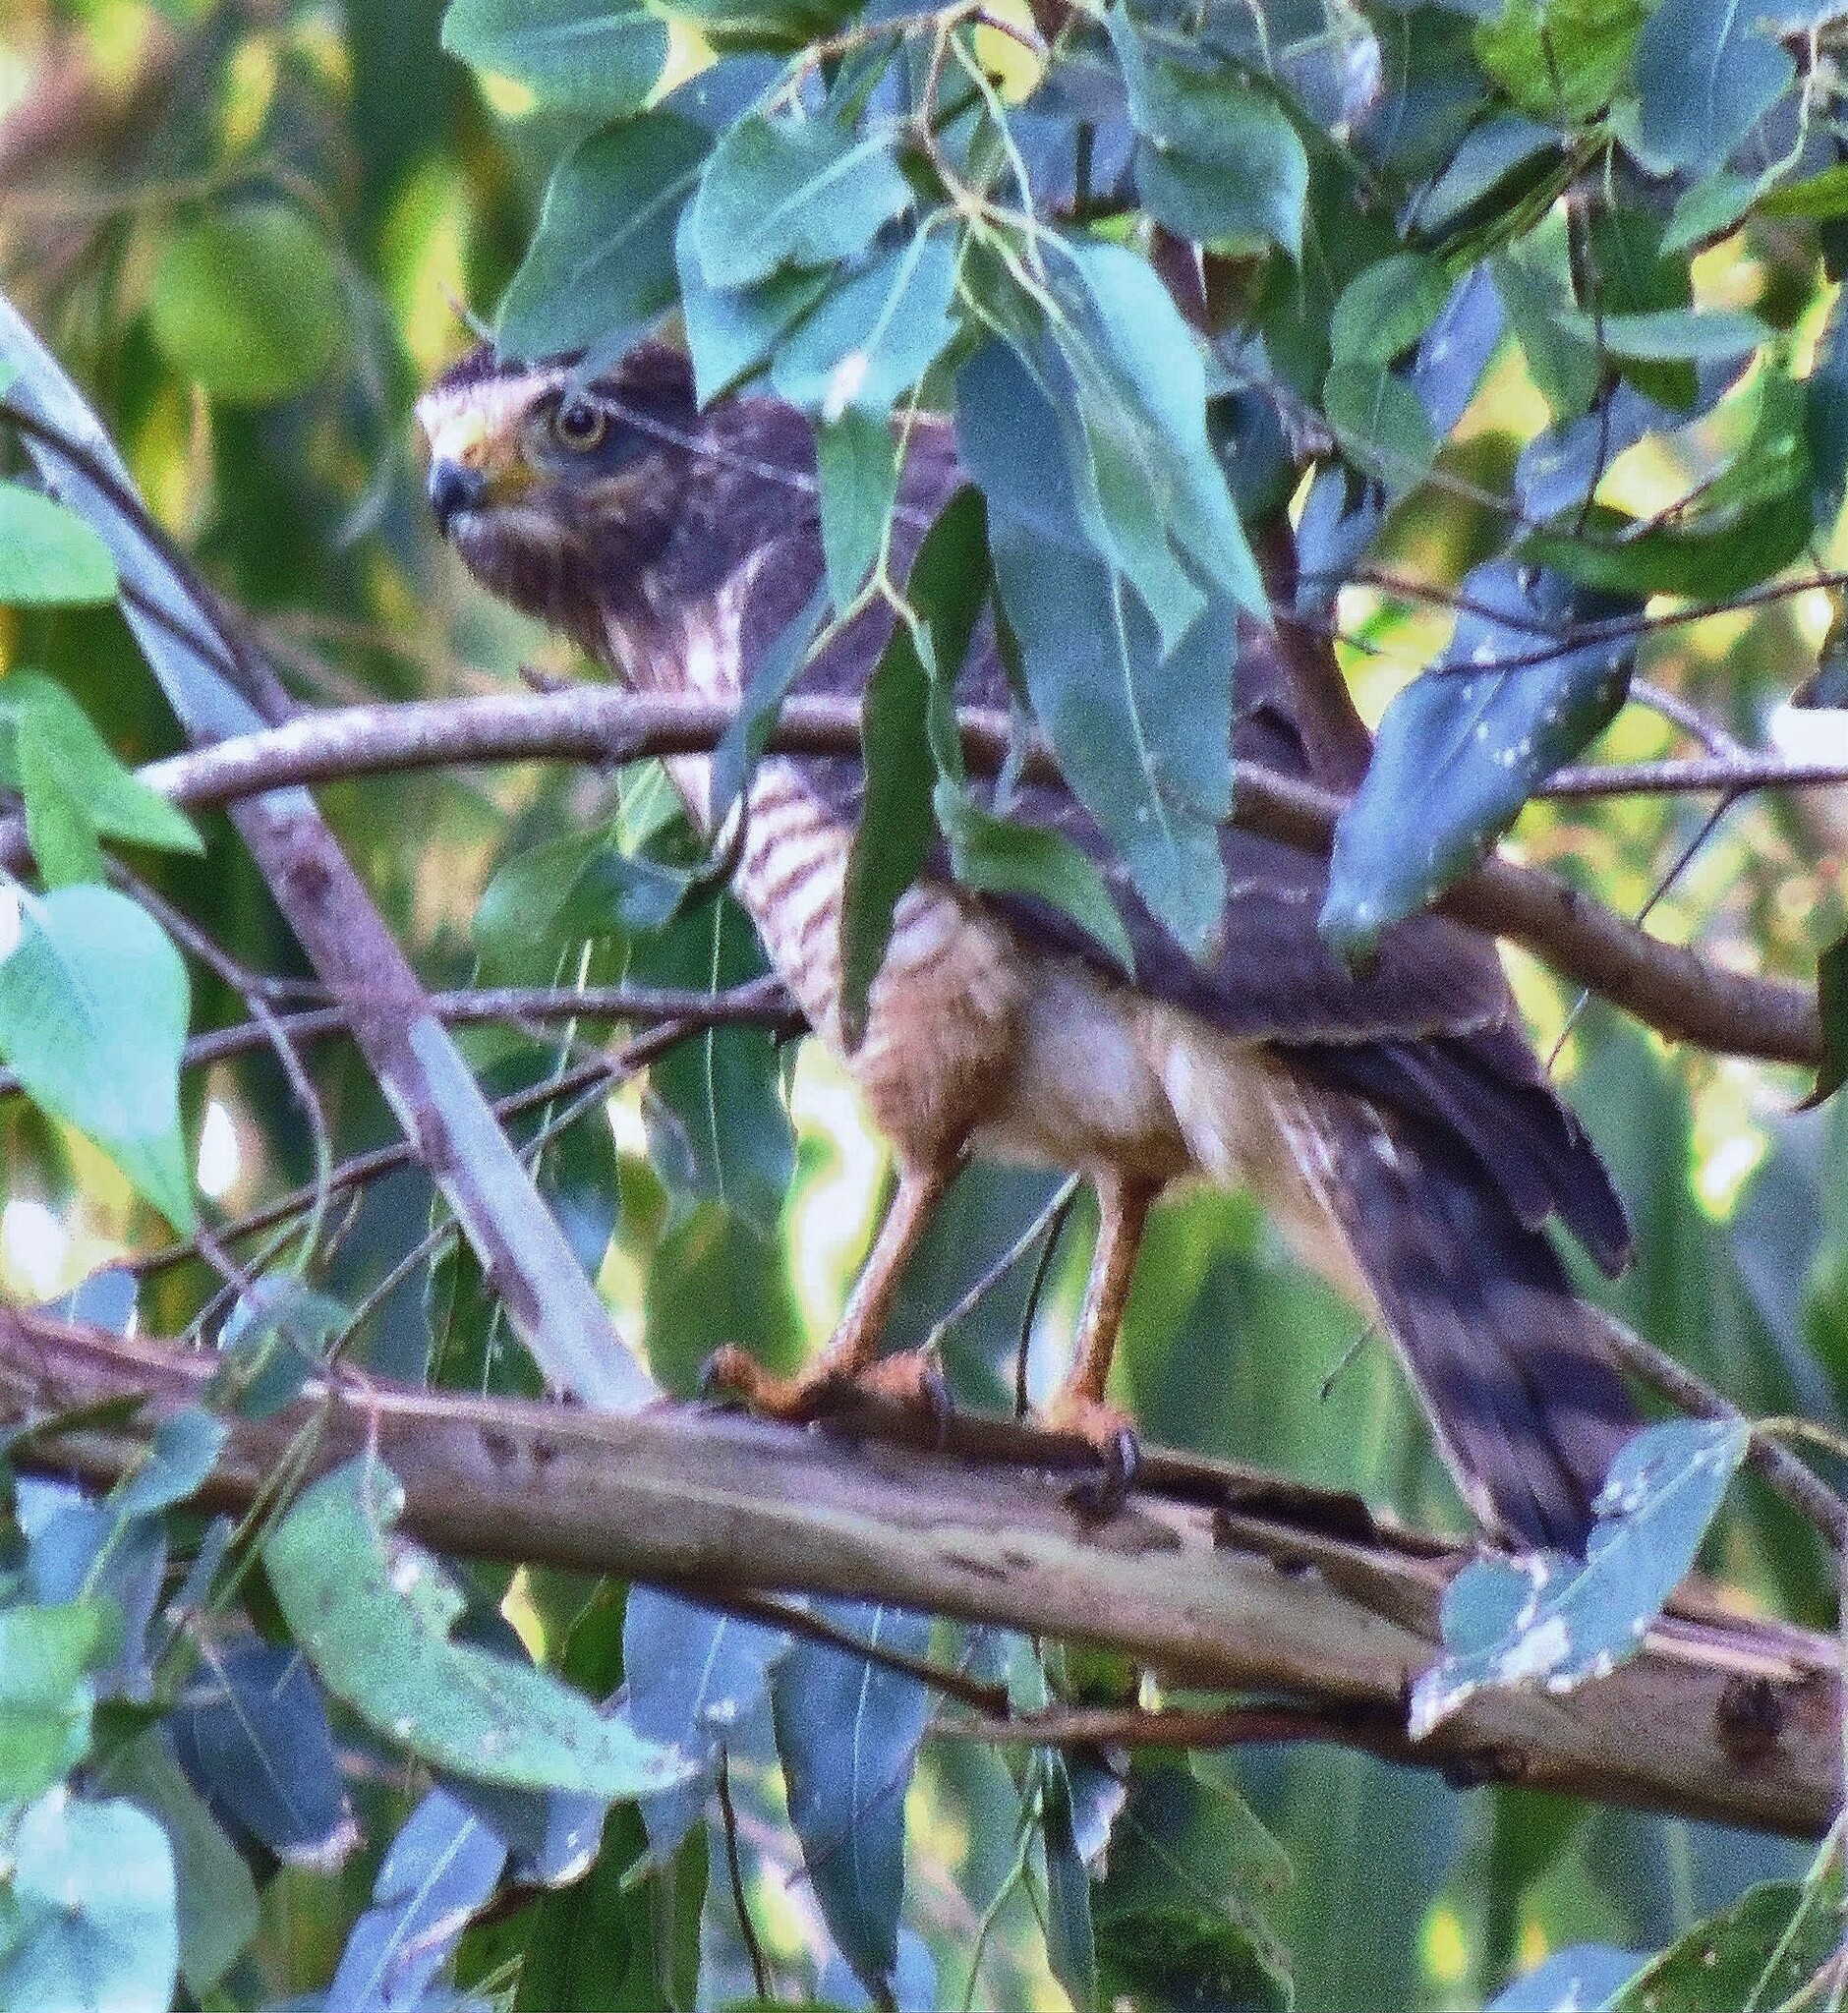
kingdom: Animalia
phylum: Chordata
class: Aves
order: Accipitriformes
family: Accipitridae
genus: Rupornis
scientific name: Rupornis magnirostris
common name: Roadside hawk
